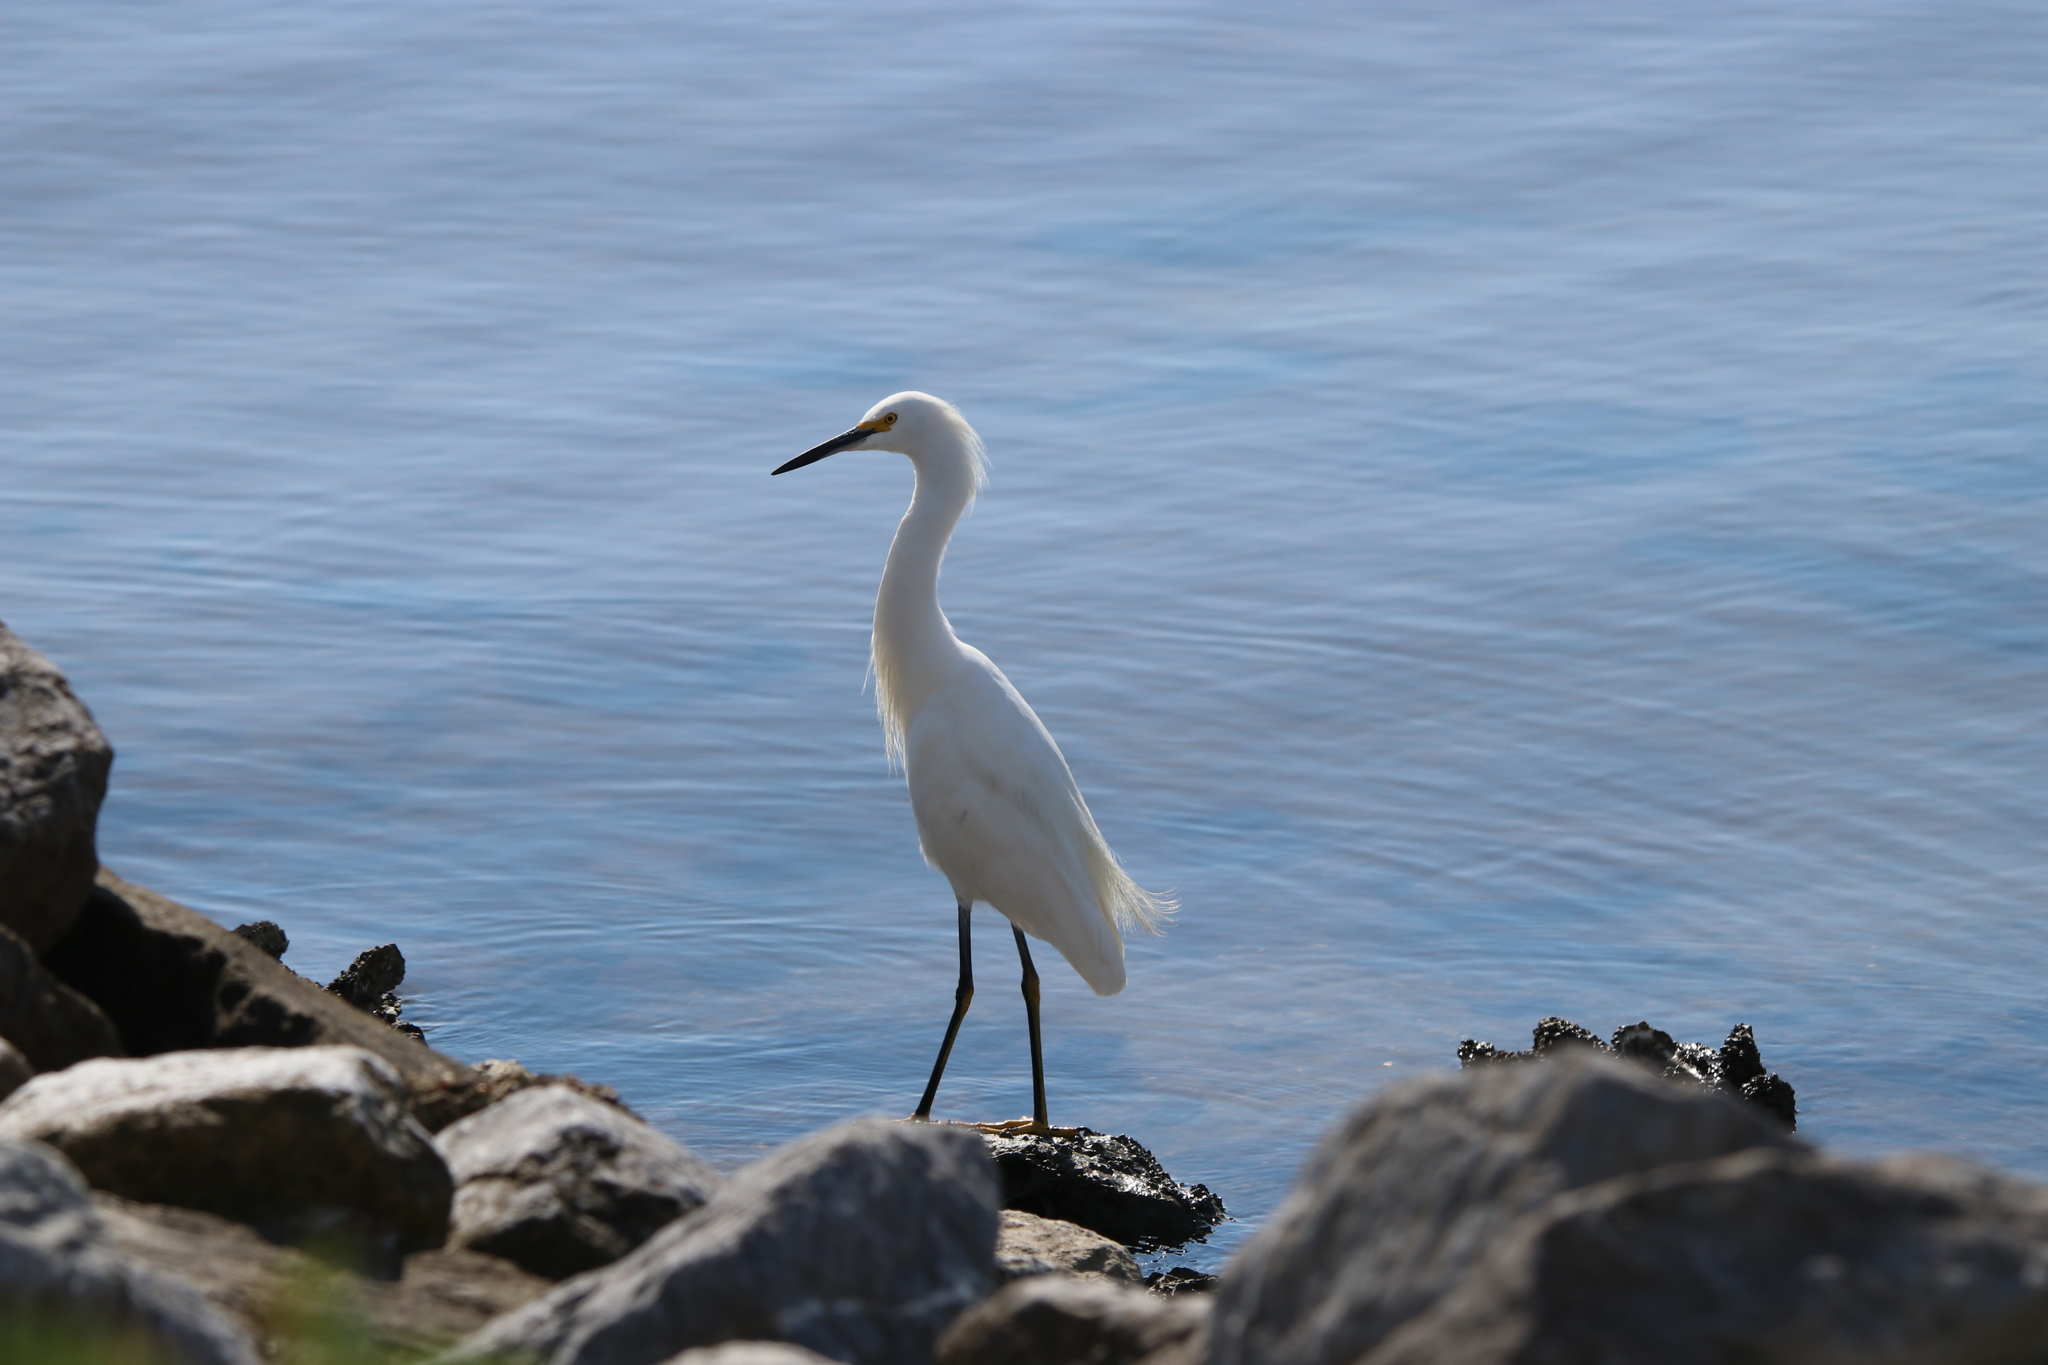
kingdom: Animalia
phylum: Chordata
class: Aves
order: Pelecaniformes
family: Ardeidae
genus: Egretta
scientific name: Egretta thula
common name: Snowy egret
